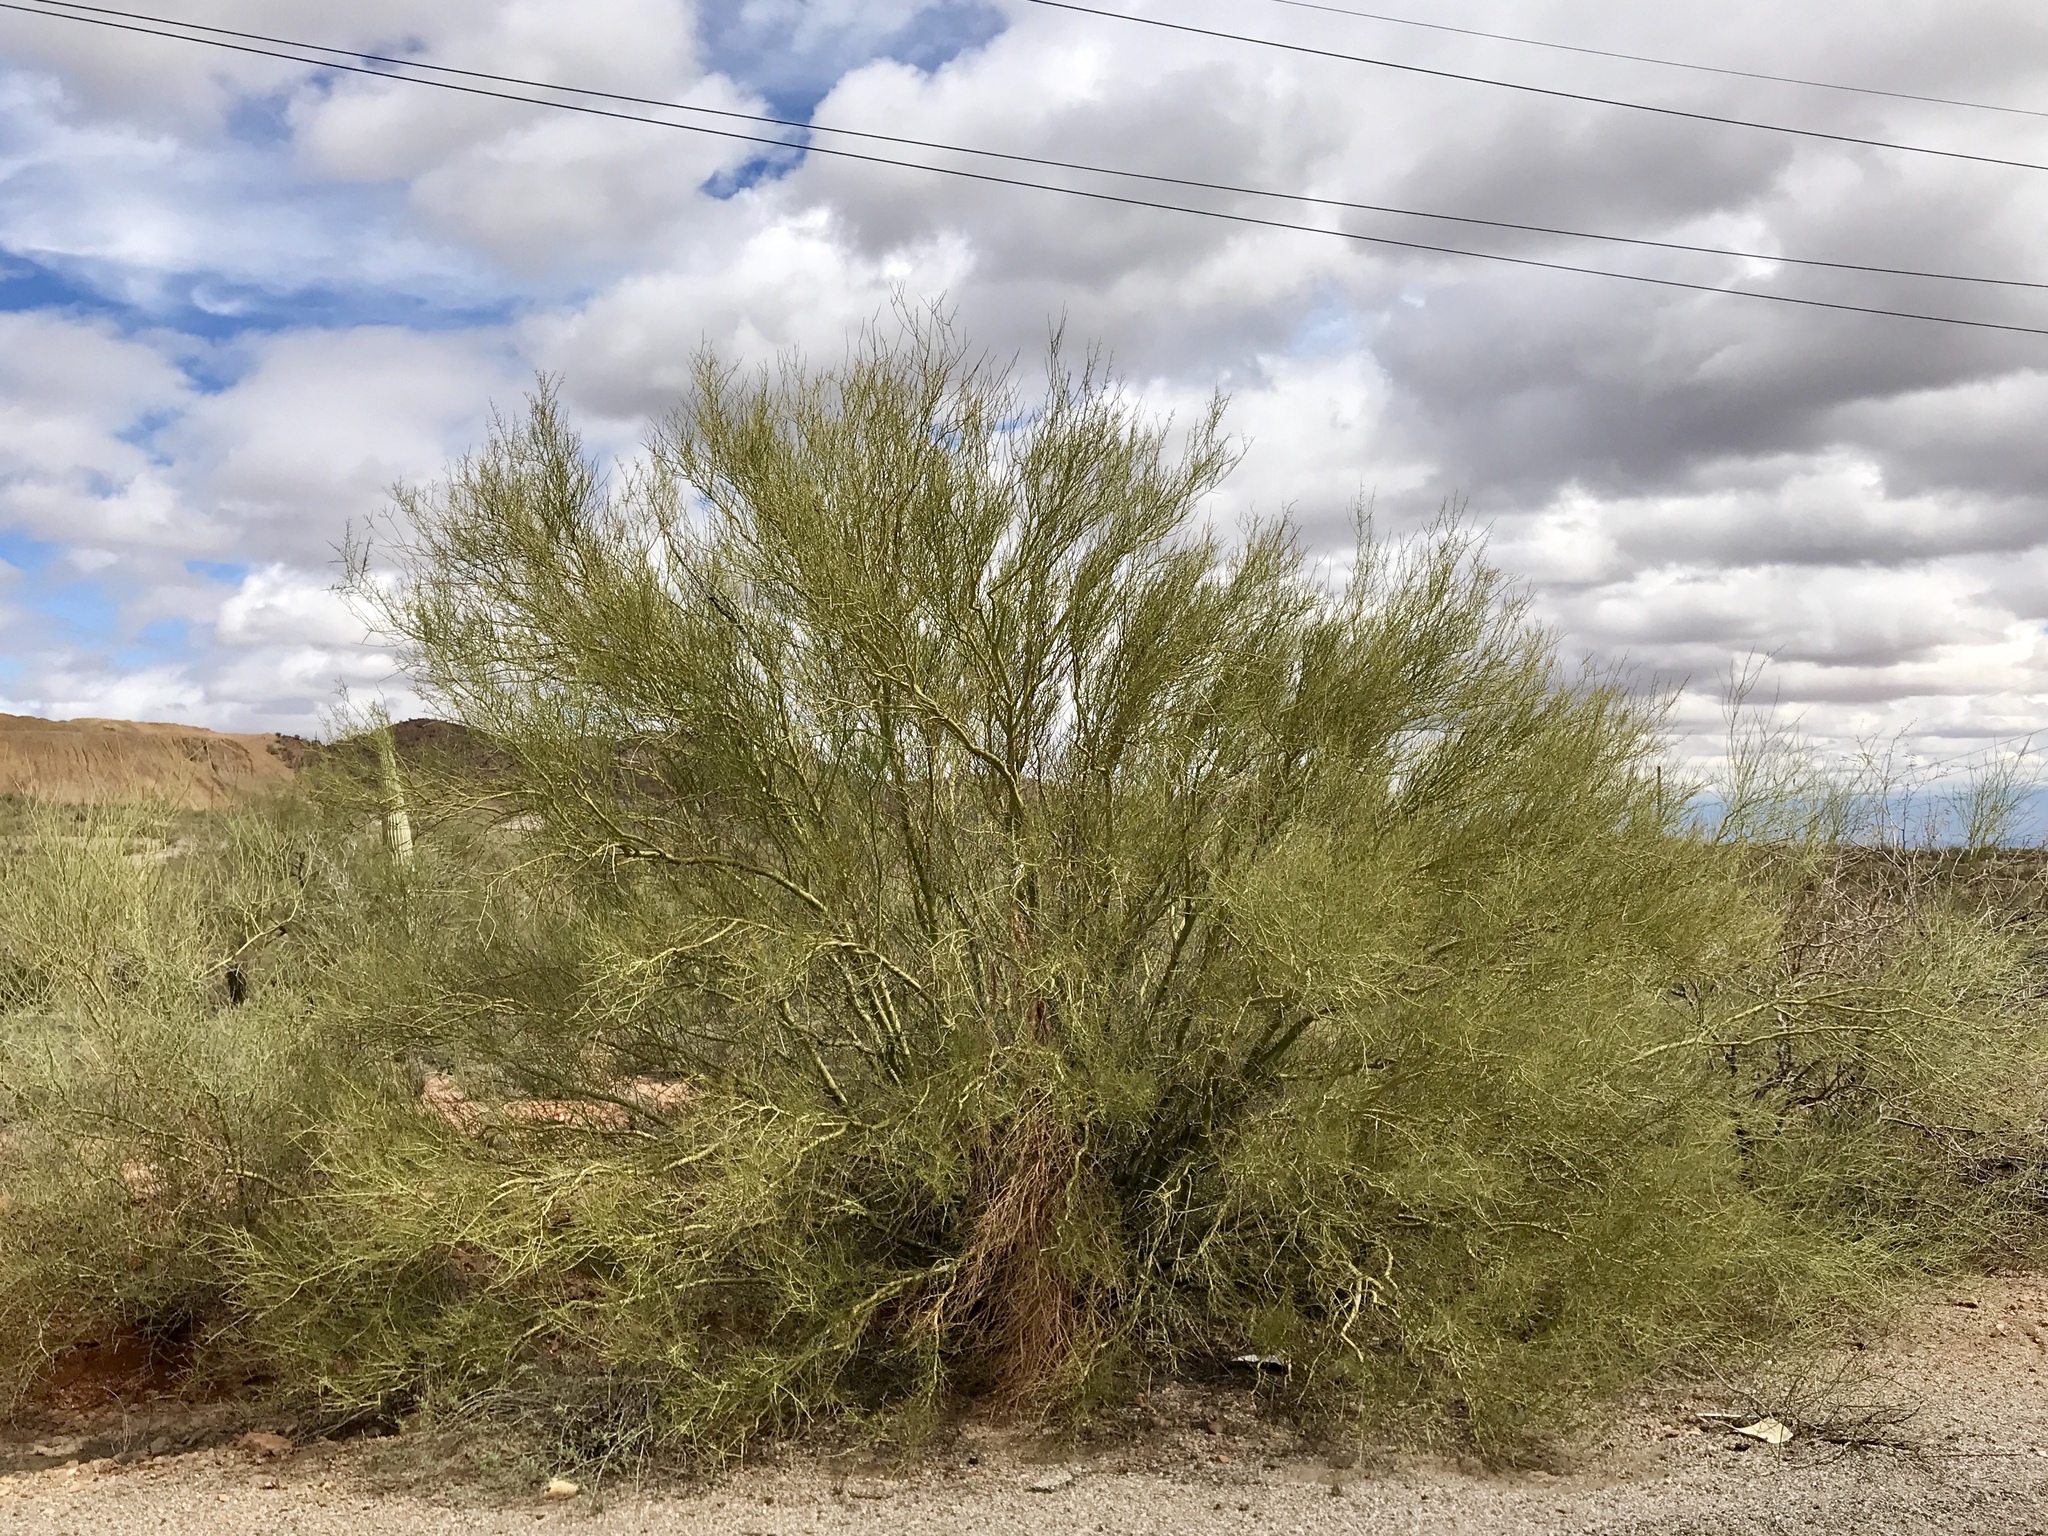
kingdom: Plantae
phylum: Tracheophyta
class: Magnoliopsida
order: Fabales
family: Fabaceae
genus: Parkinsonia
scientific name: Parkinsonia microphylla
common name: Yellow paloverde
